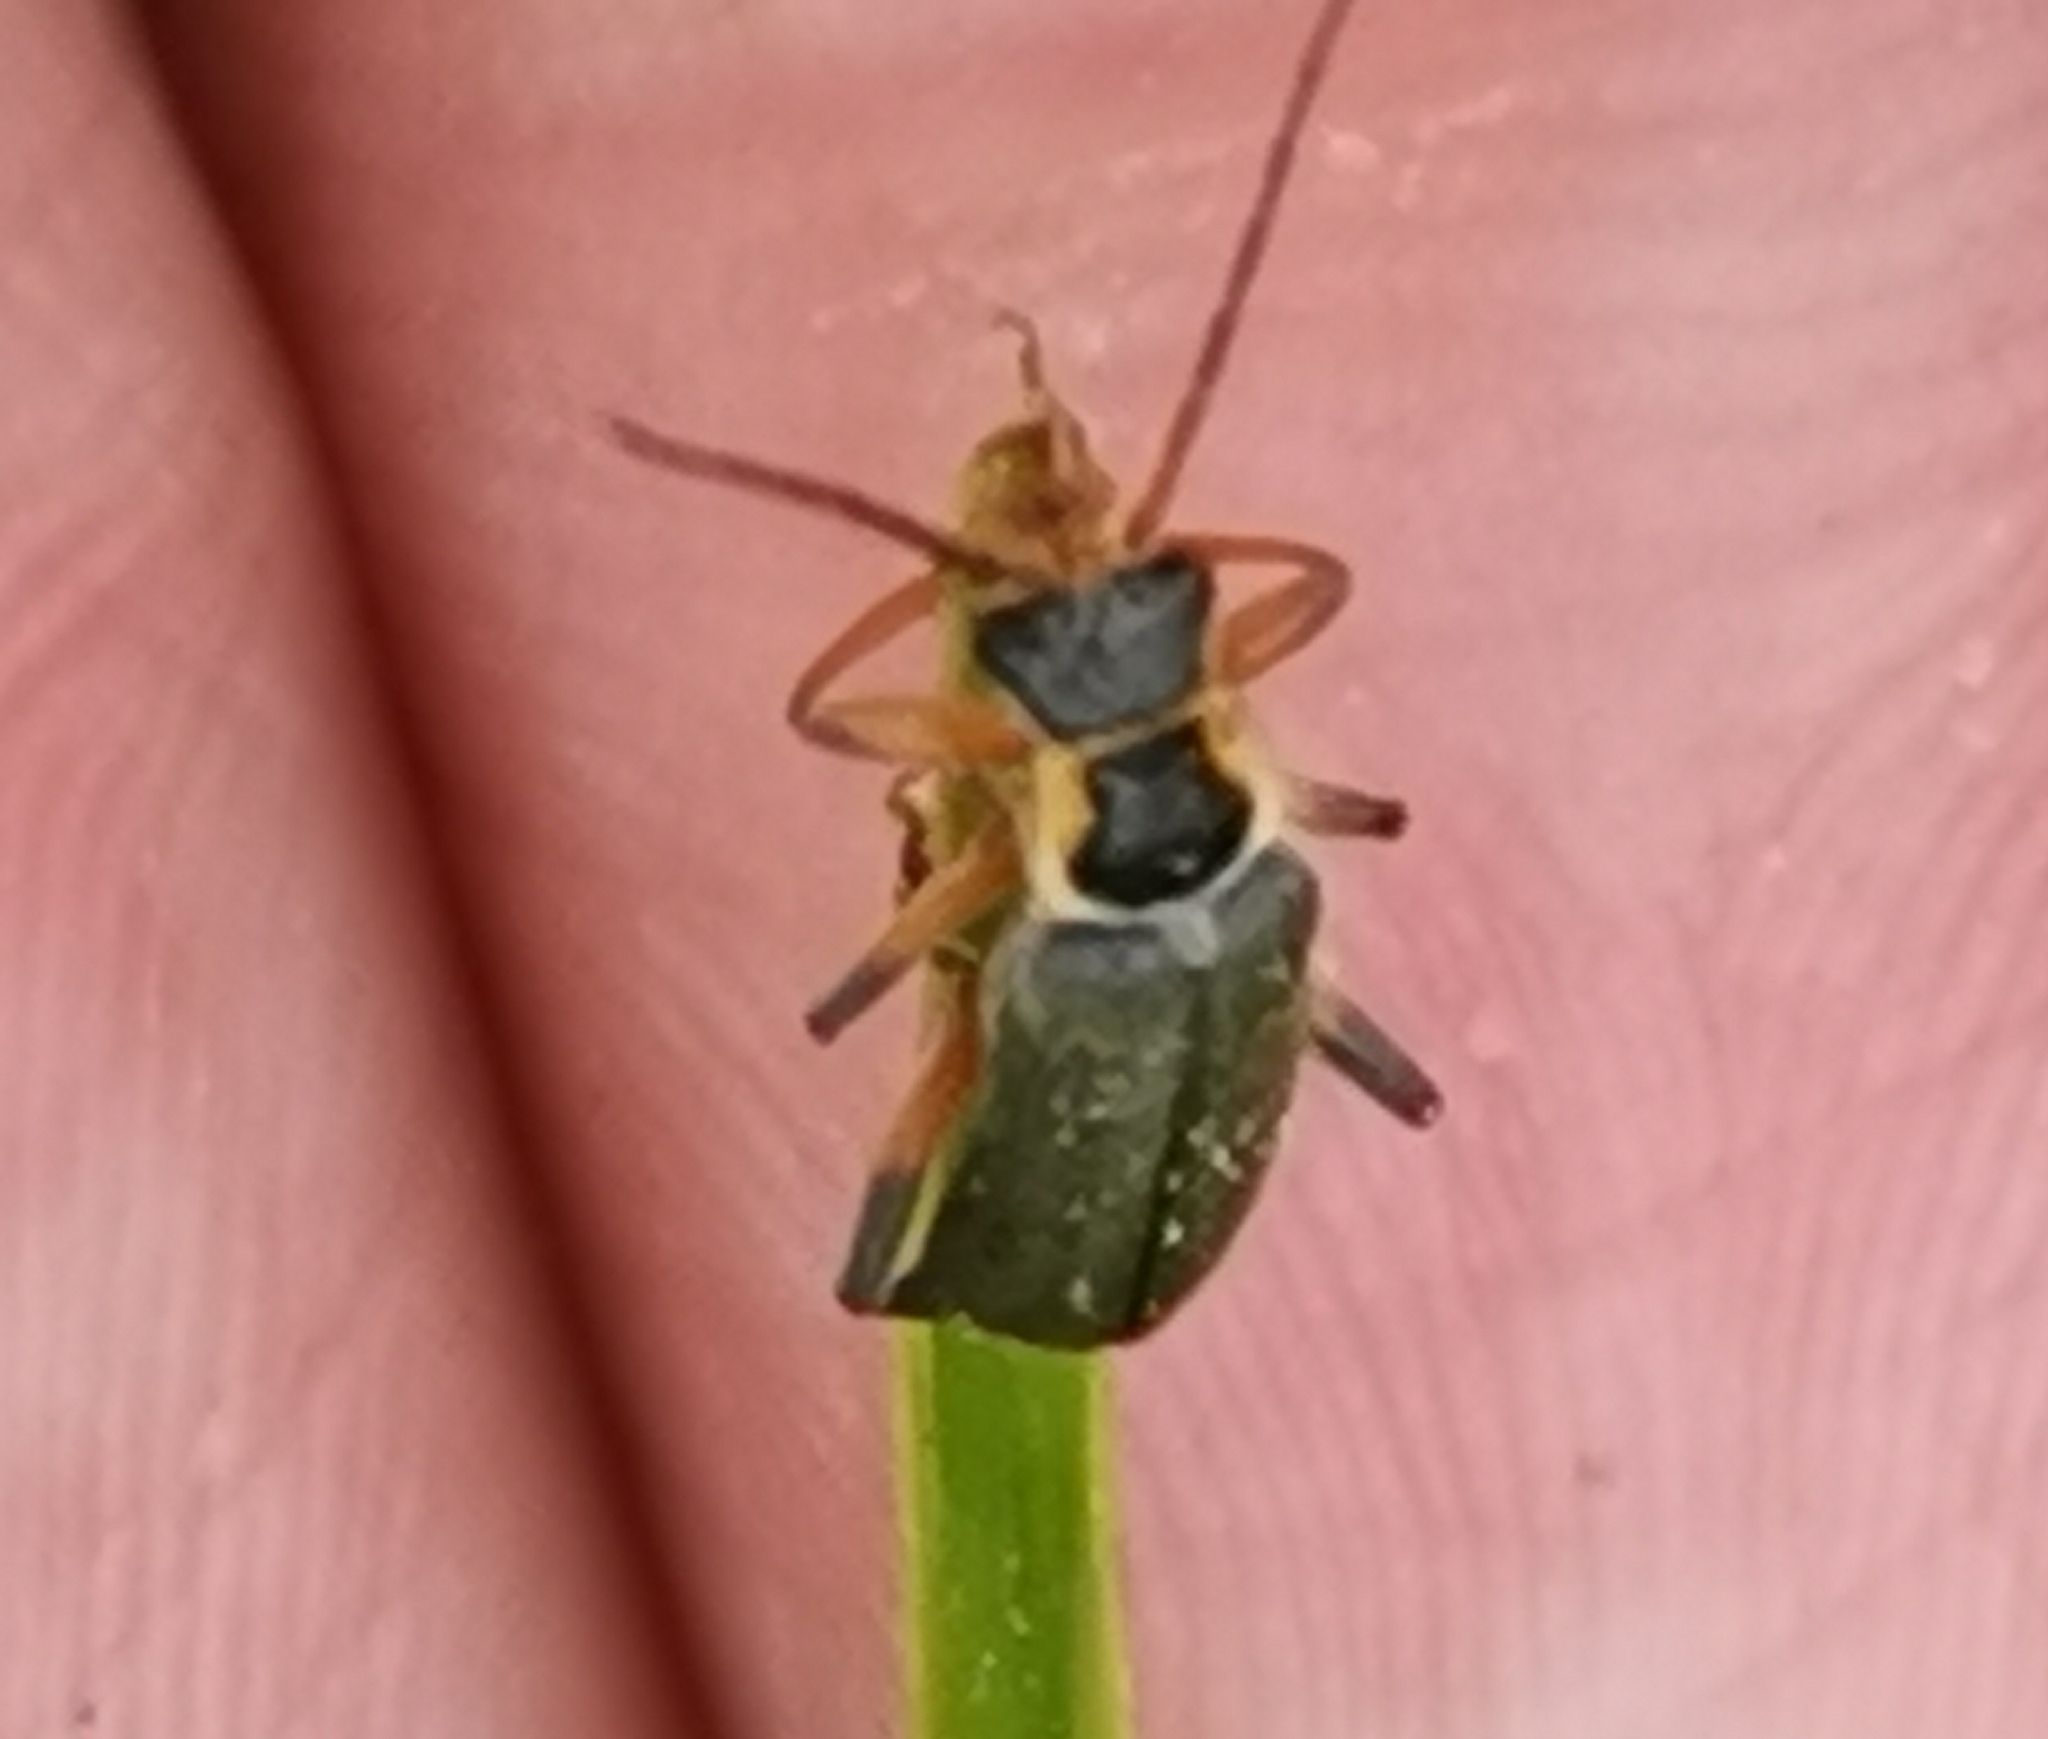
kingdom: Animalia
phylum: Arthropoda
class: Insecta
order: Coleoptera
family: Cantharidae
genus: Cantharis
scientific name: Cantharis nigricans
